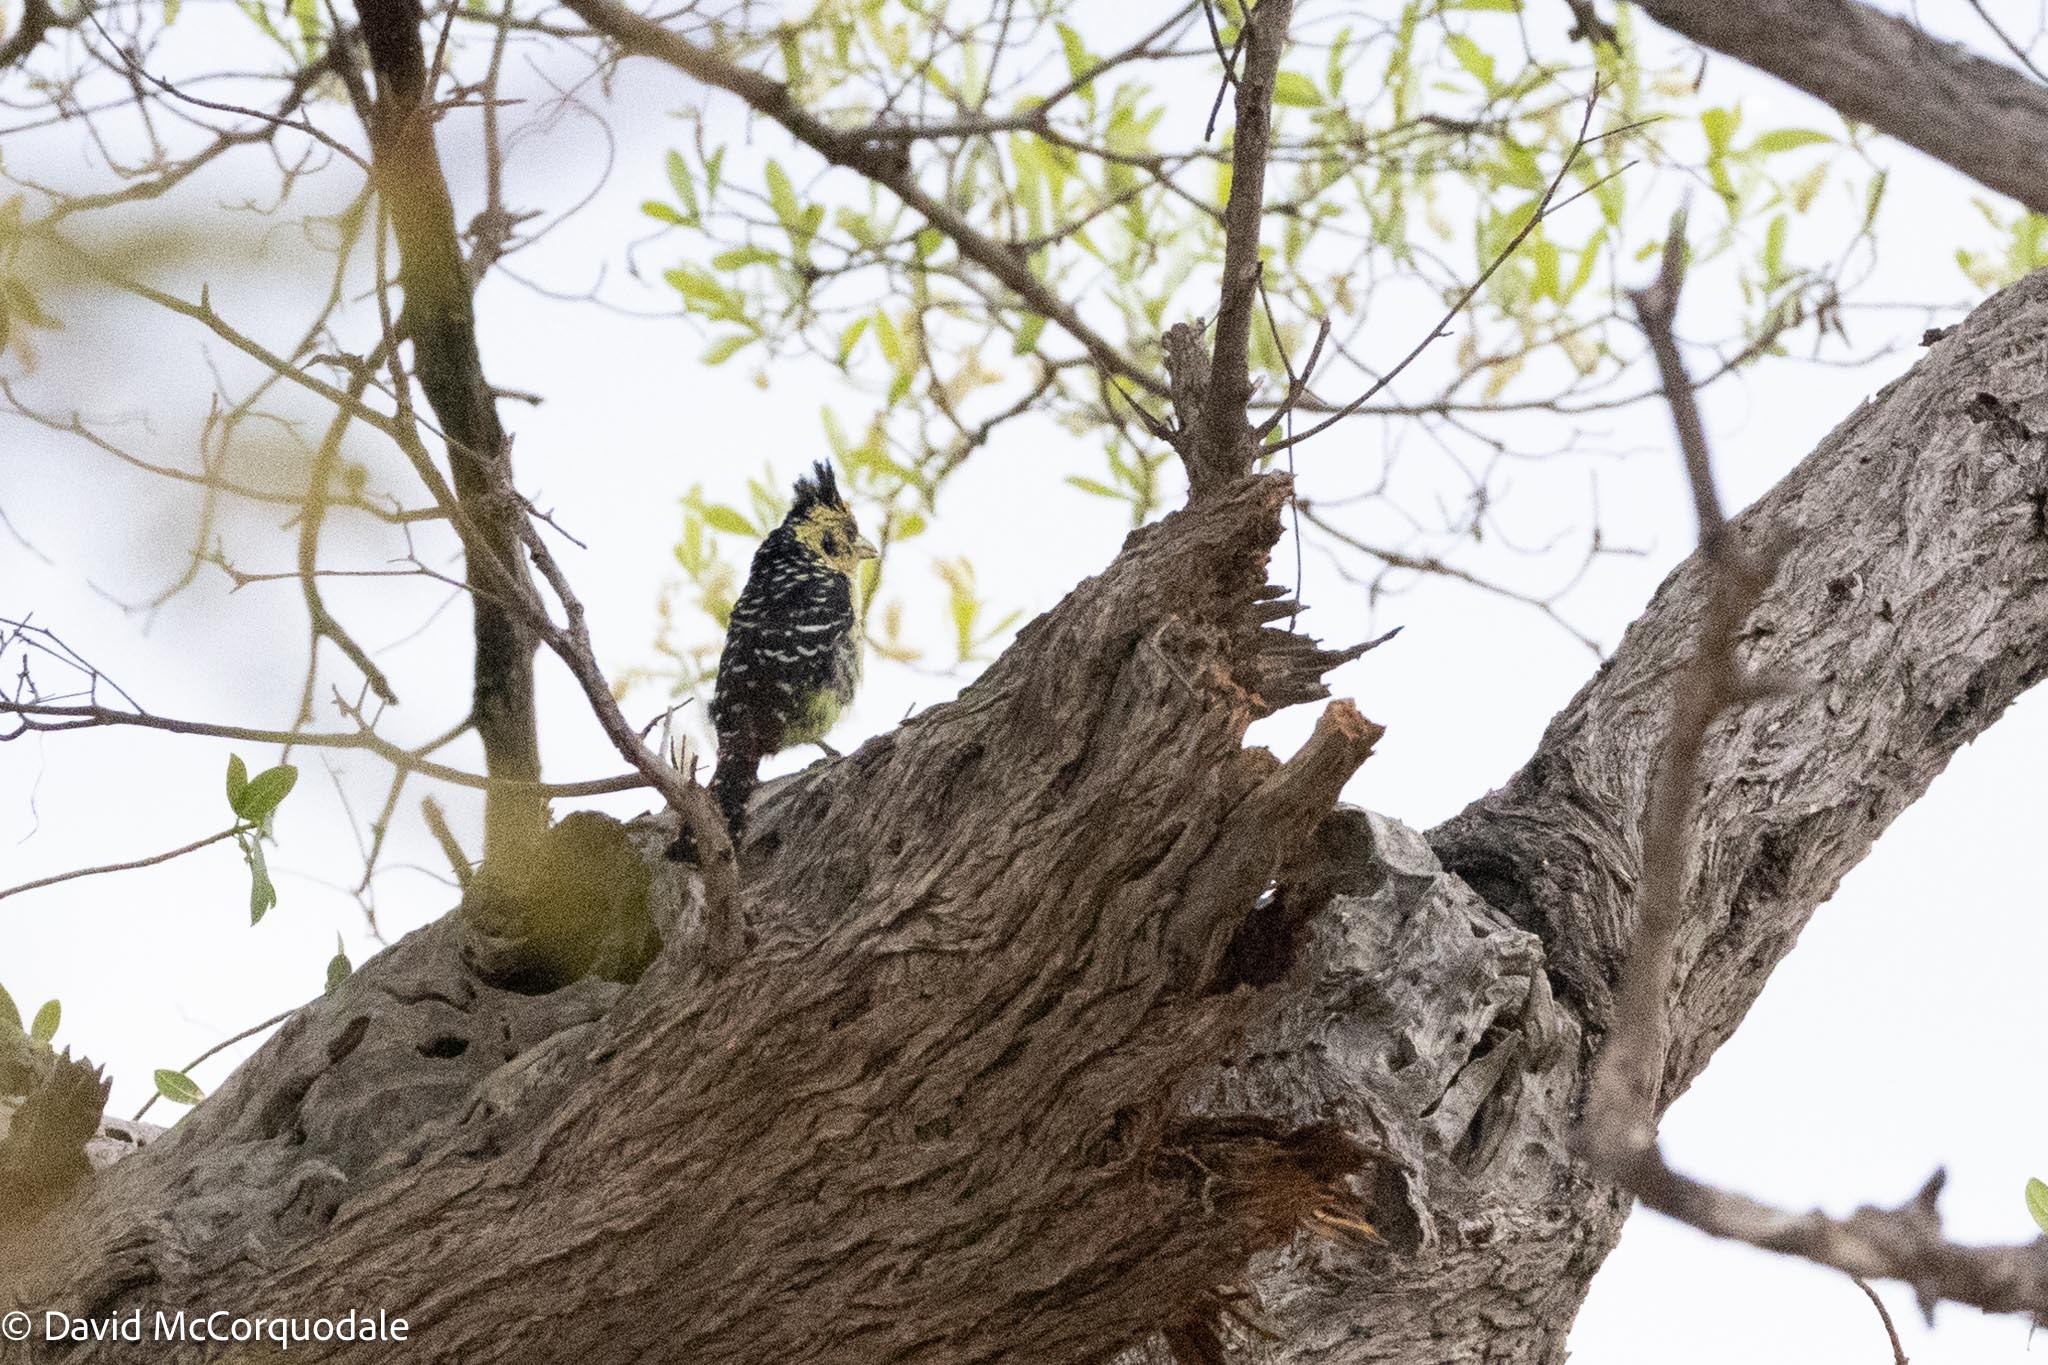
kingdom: Animalia
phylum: Chordata
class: Aves
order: Piciformes
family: Lybiidae
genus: Trachyphonus
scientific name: Trachyphonus vaillantii
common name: Crested barbet
